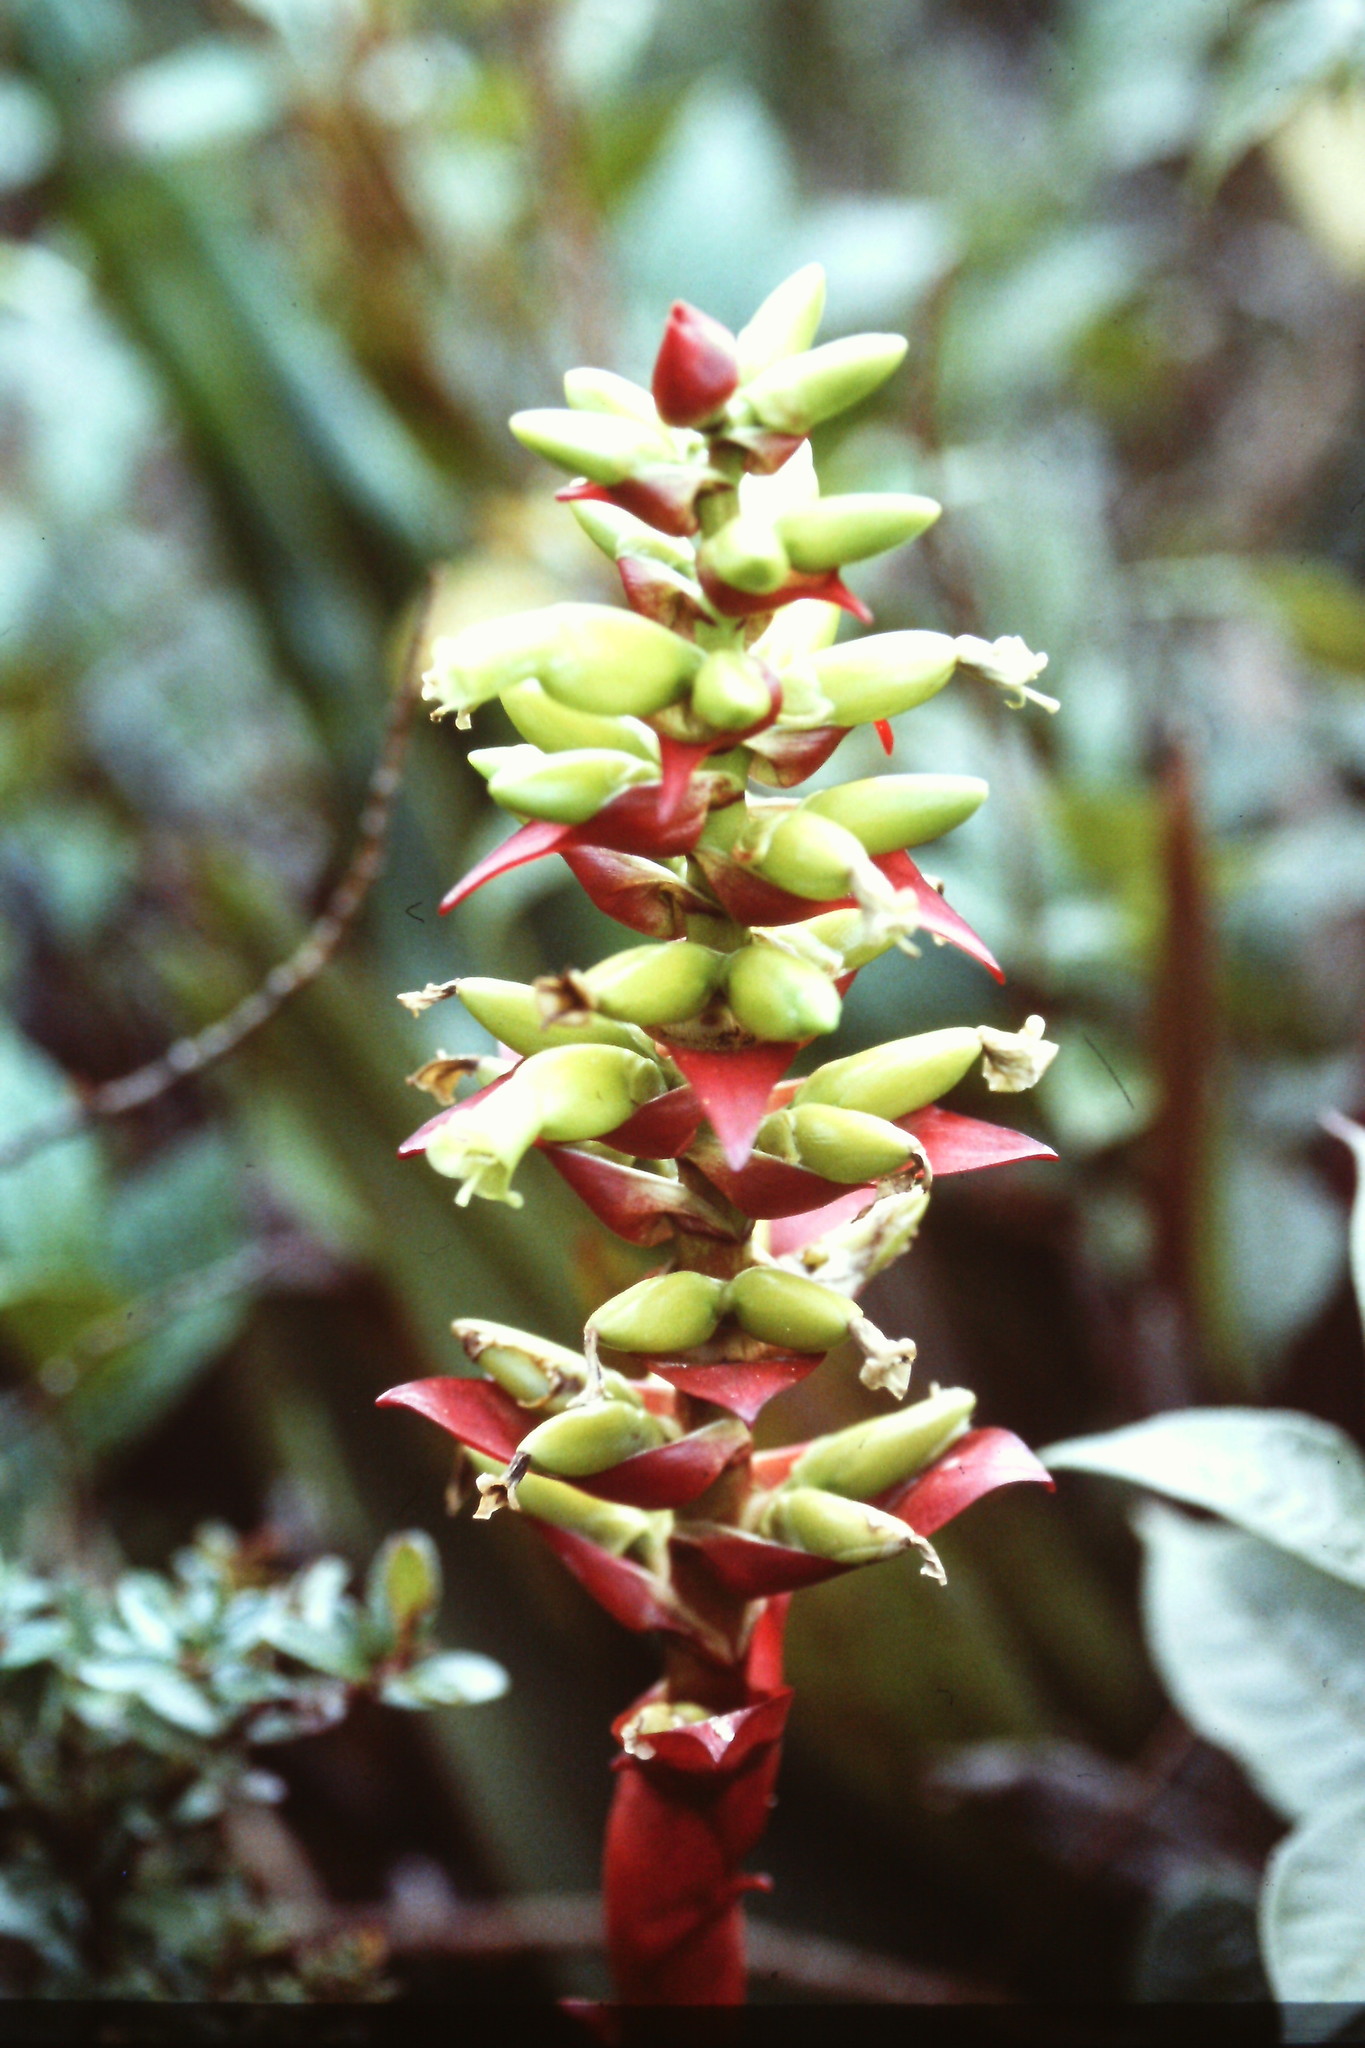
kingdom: Plantae
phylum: Tracheophyta
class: Liliopsida
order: Poales
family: Bromeliaceae
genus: Werauhia
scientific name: Werauhia ororiensis
